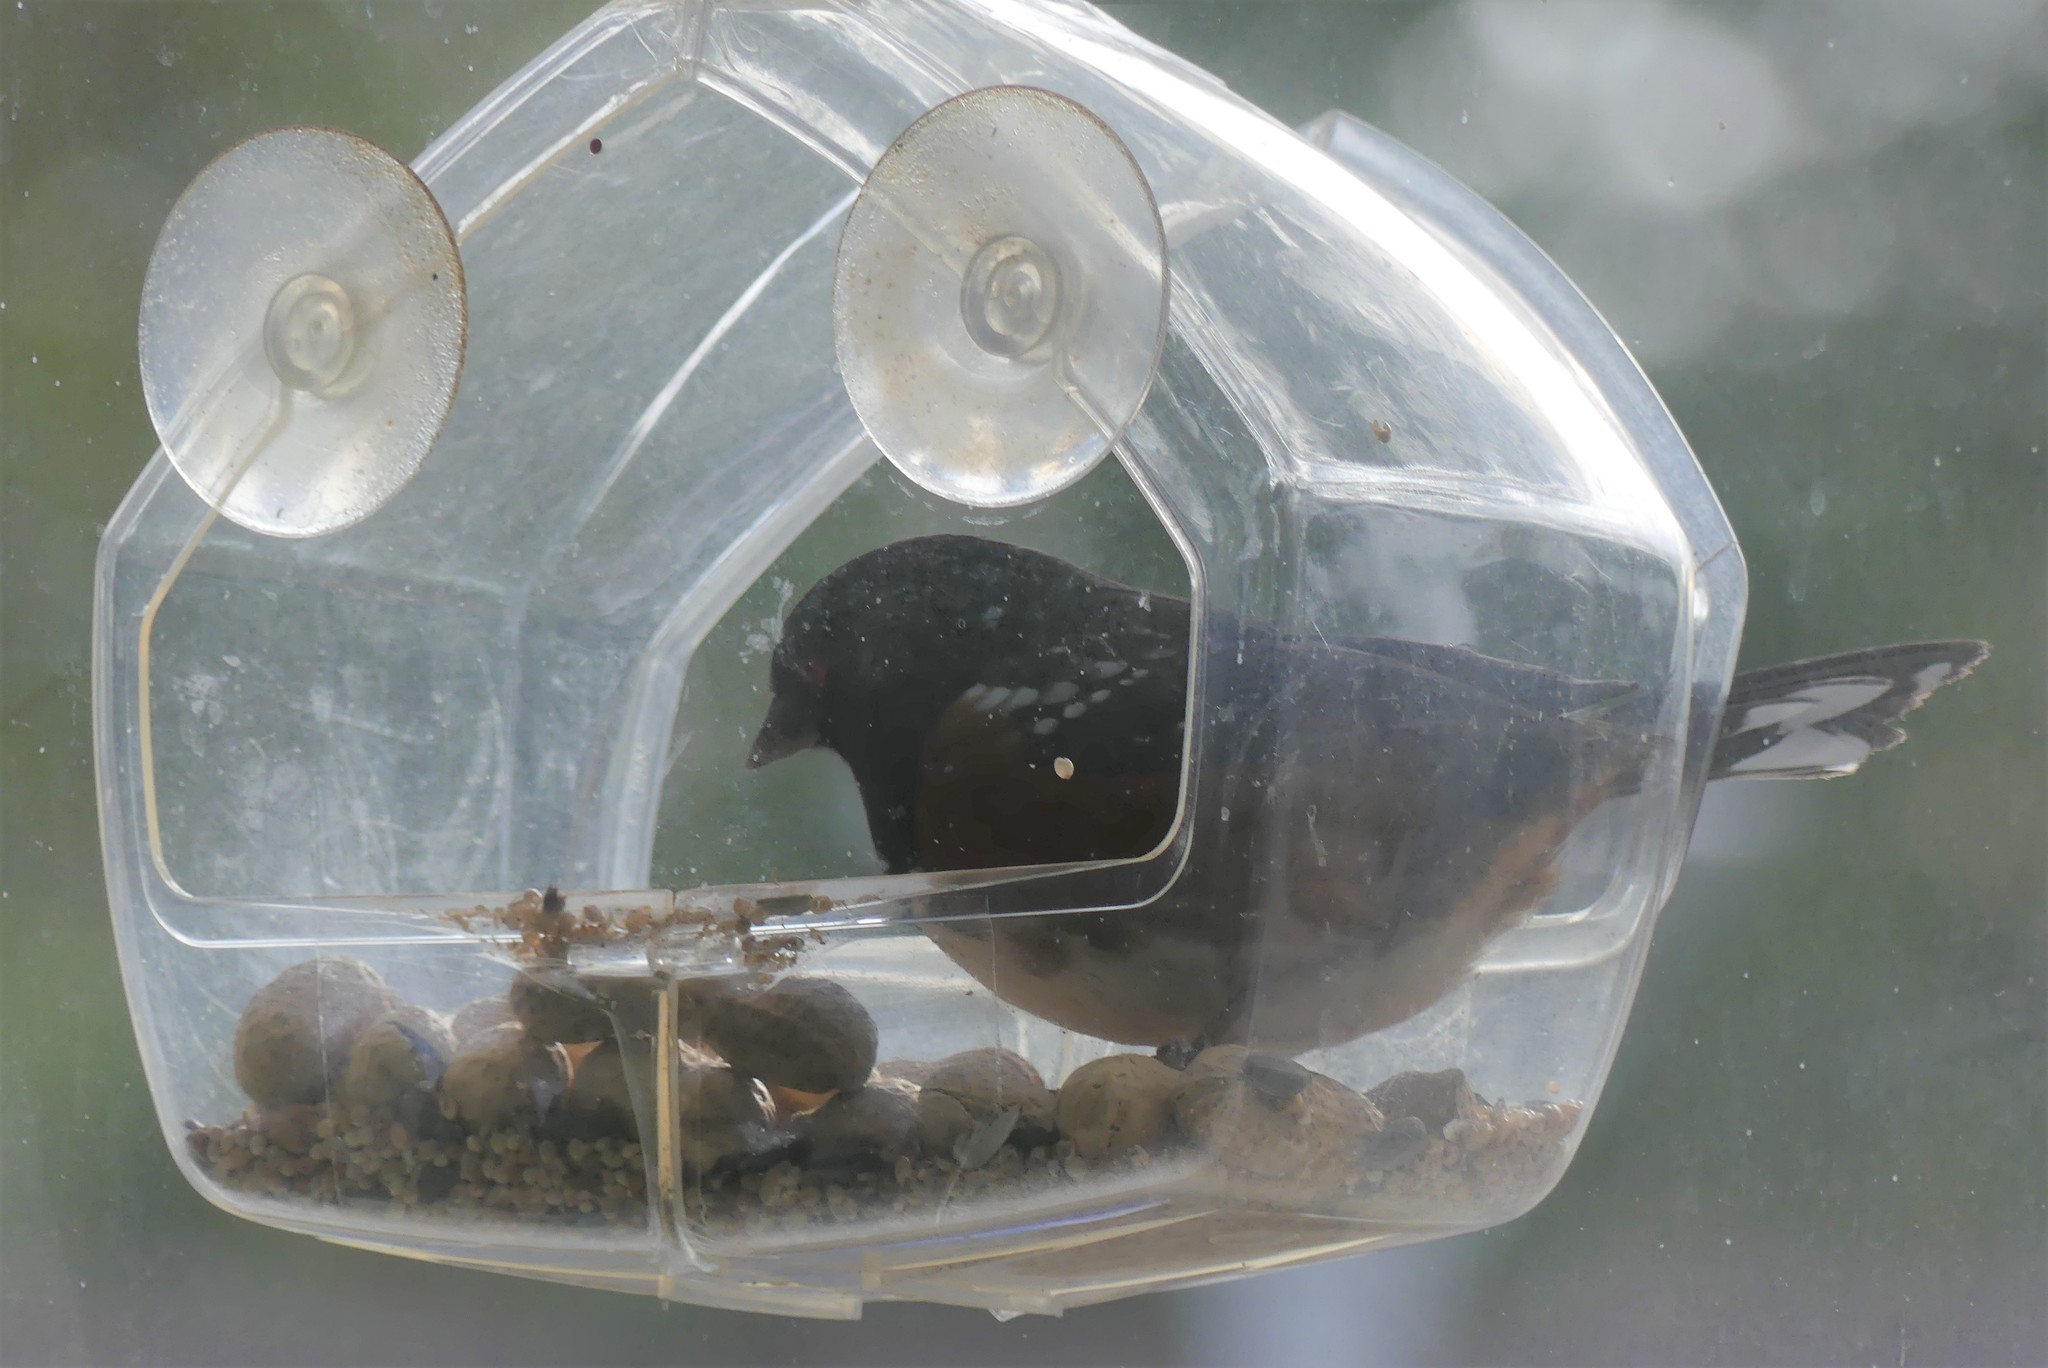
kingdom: Animalia
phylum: Chordata
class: Aves
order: Passeriformes
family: Passerellidae
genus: Pipilo
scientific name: Pipilo maculatus
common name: Spotted towhee
